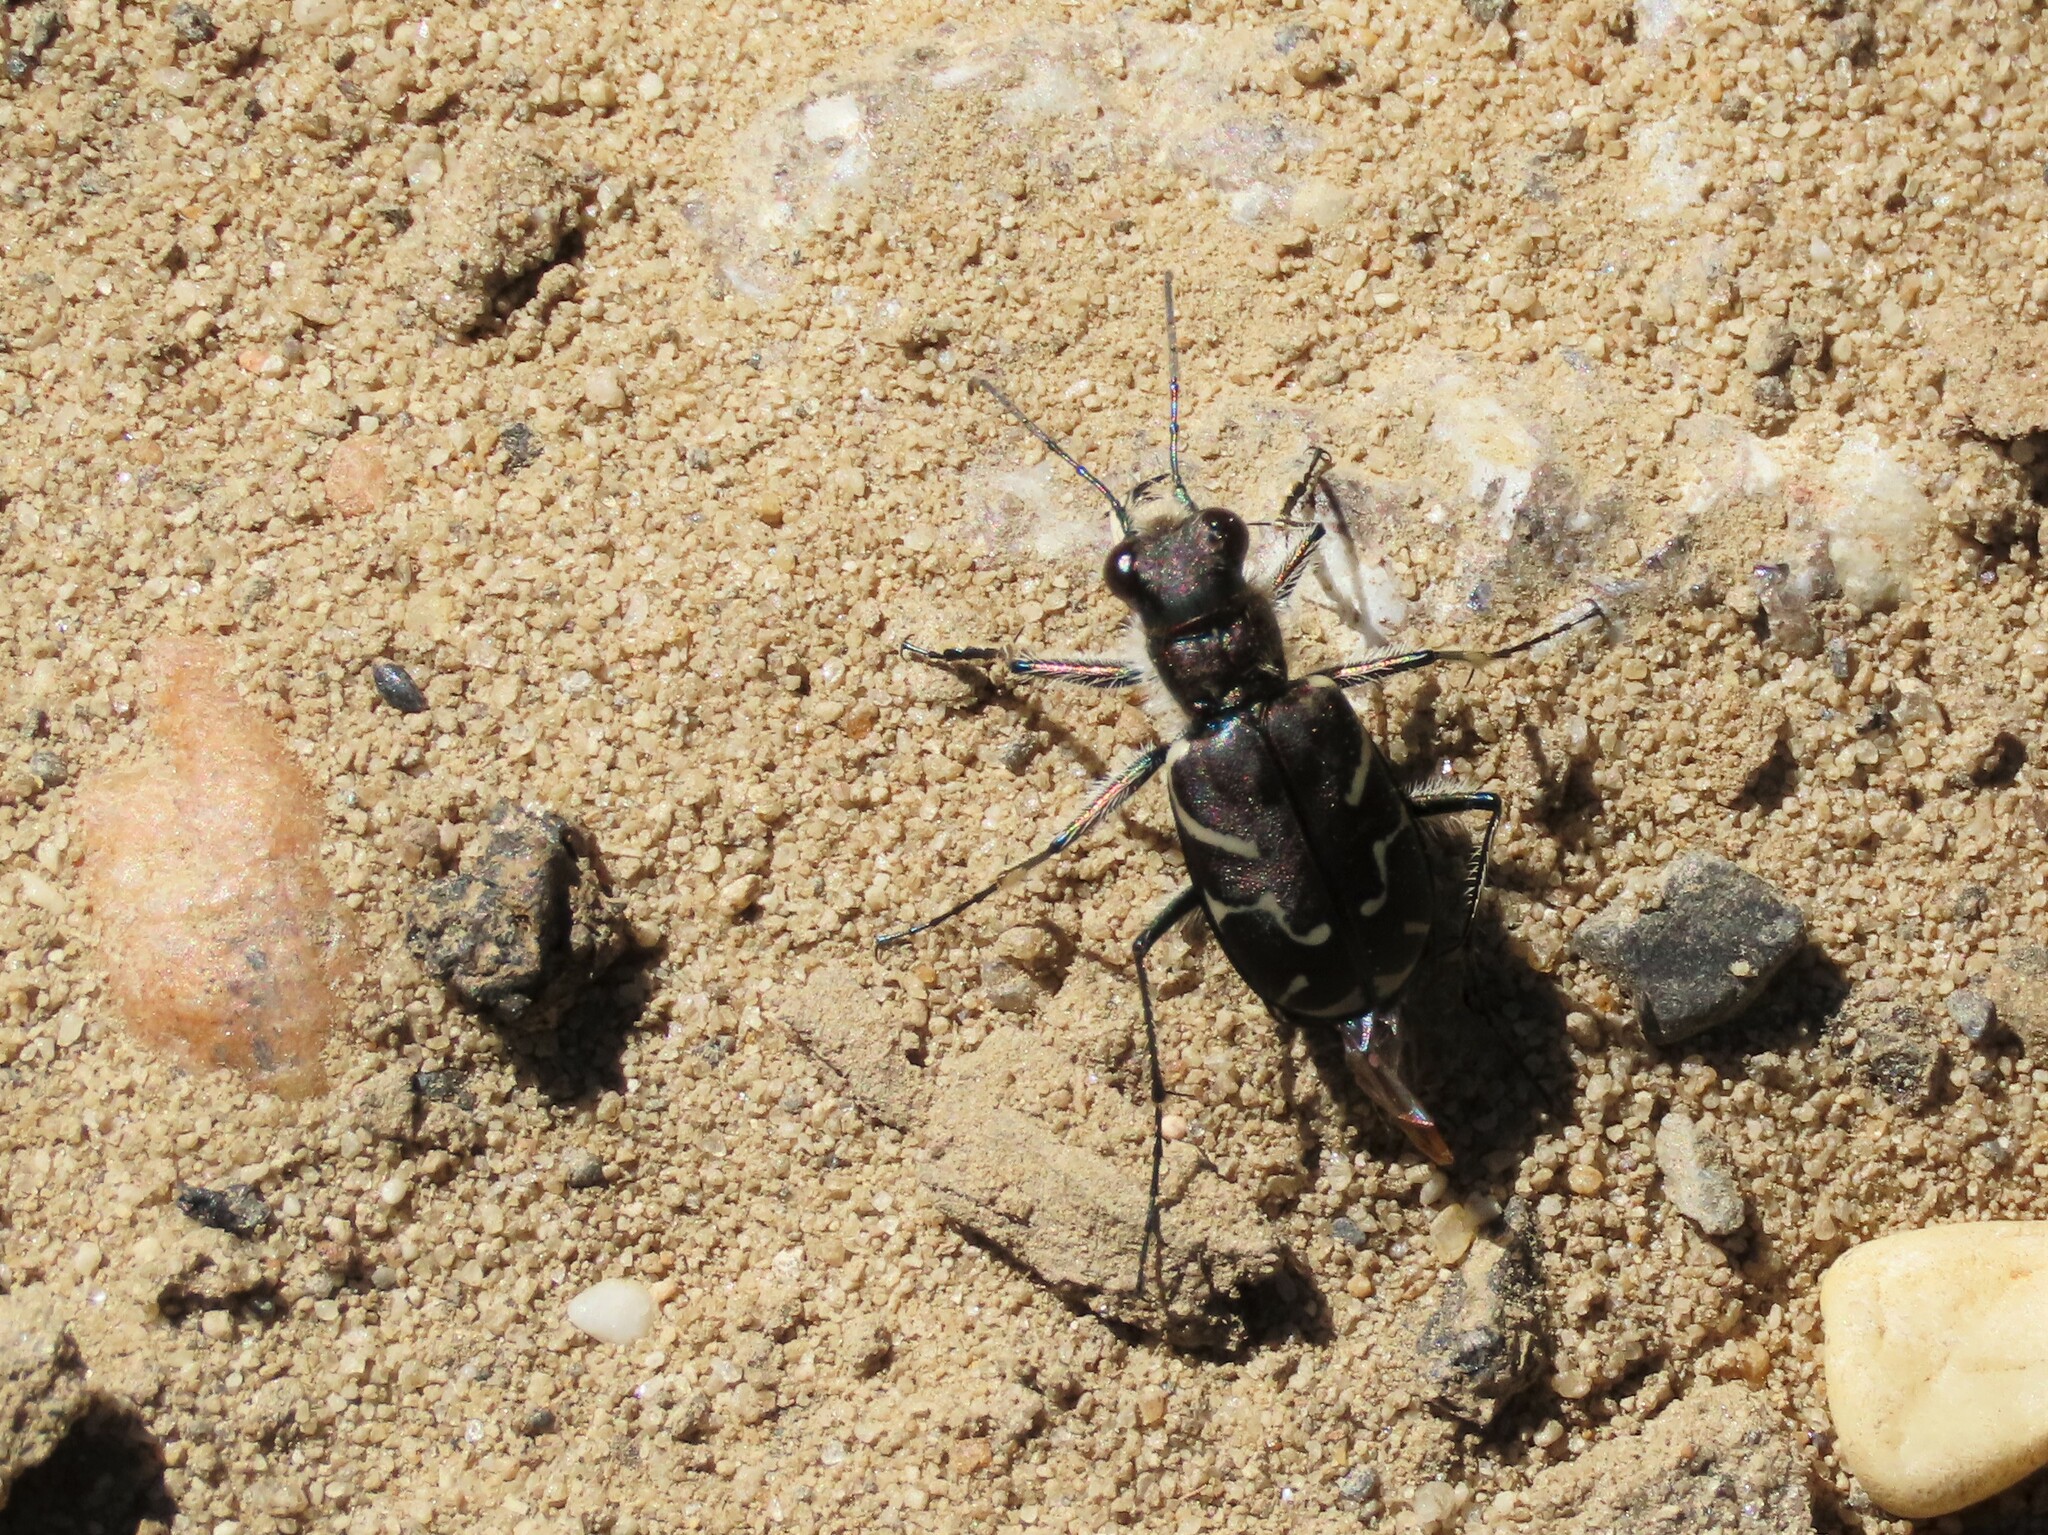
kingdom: Animalia
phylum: Arthropoda
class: Insecta
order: Coleoptera
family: Carabidae
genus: Cicindela
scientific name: Cicindela tranquebarica
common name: Oblique-lined tiger beetle
